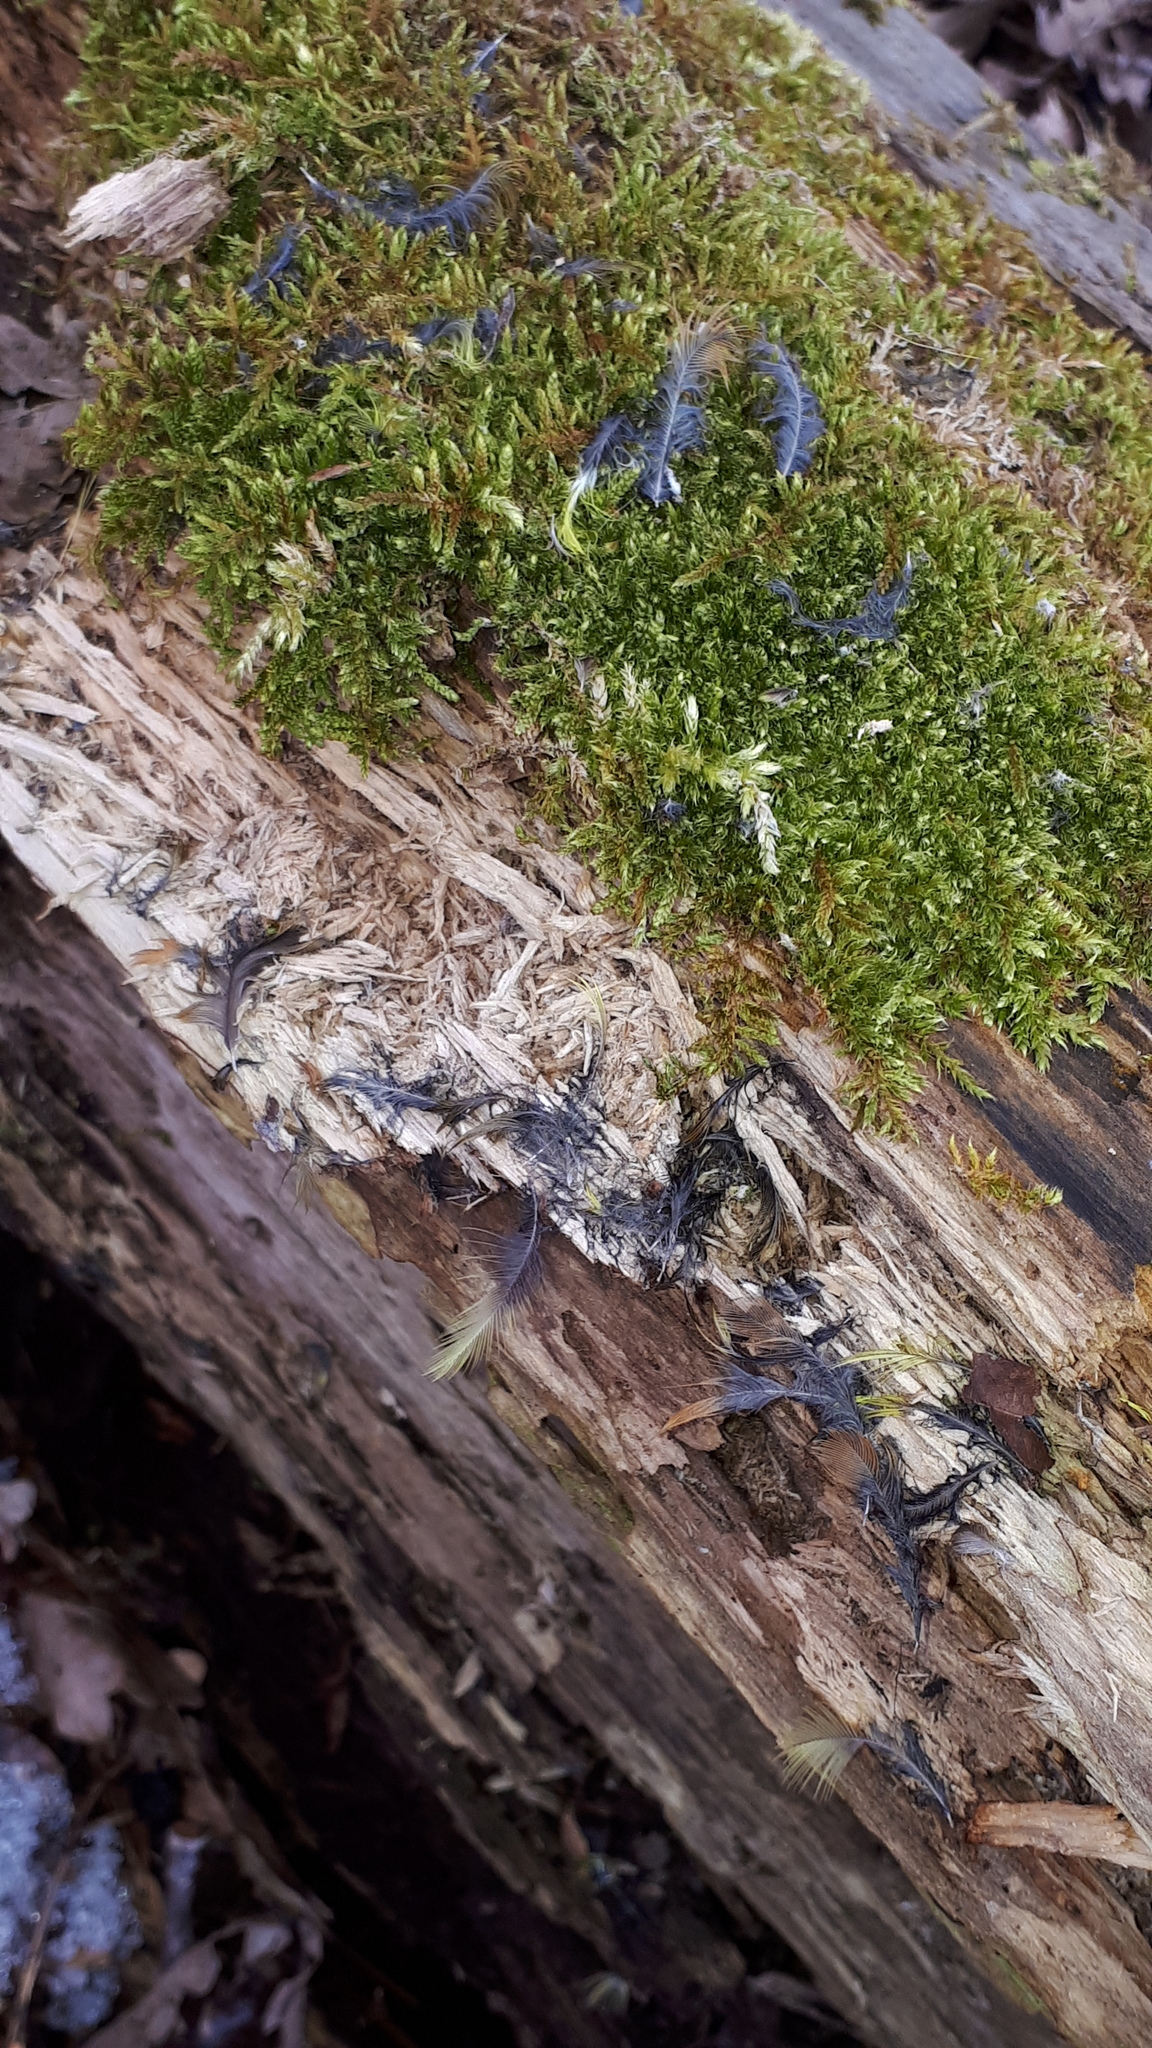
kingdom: Animalia
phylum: Chordata
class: Aves
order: Passeriformes
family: Fringillidae
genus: Fringilla
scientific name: Fringilla coelebs
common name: Common chaffinch
